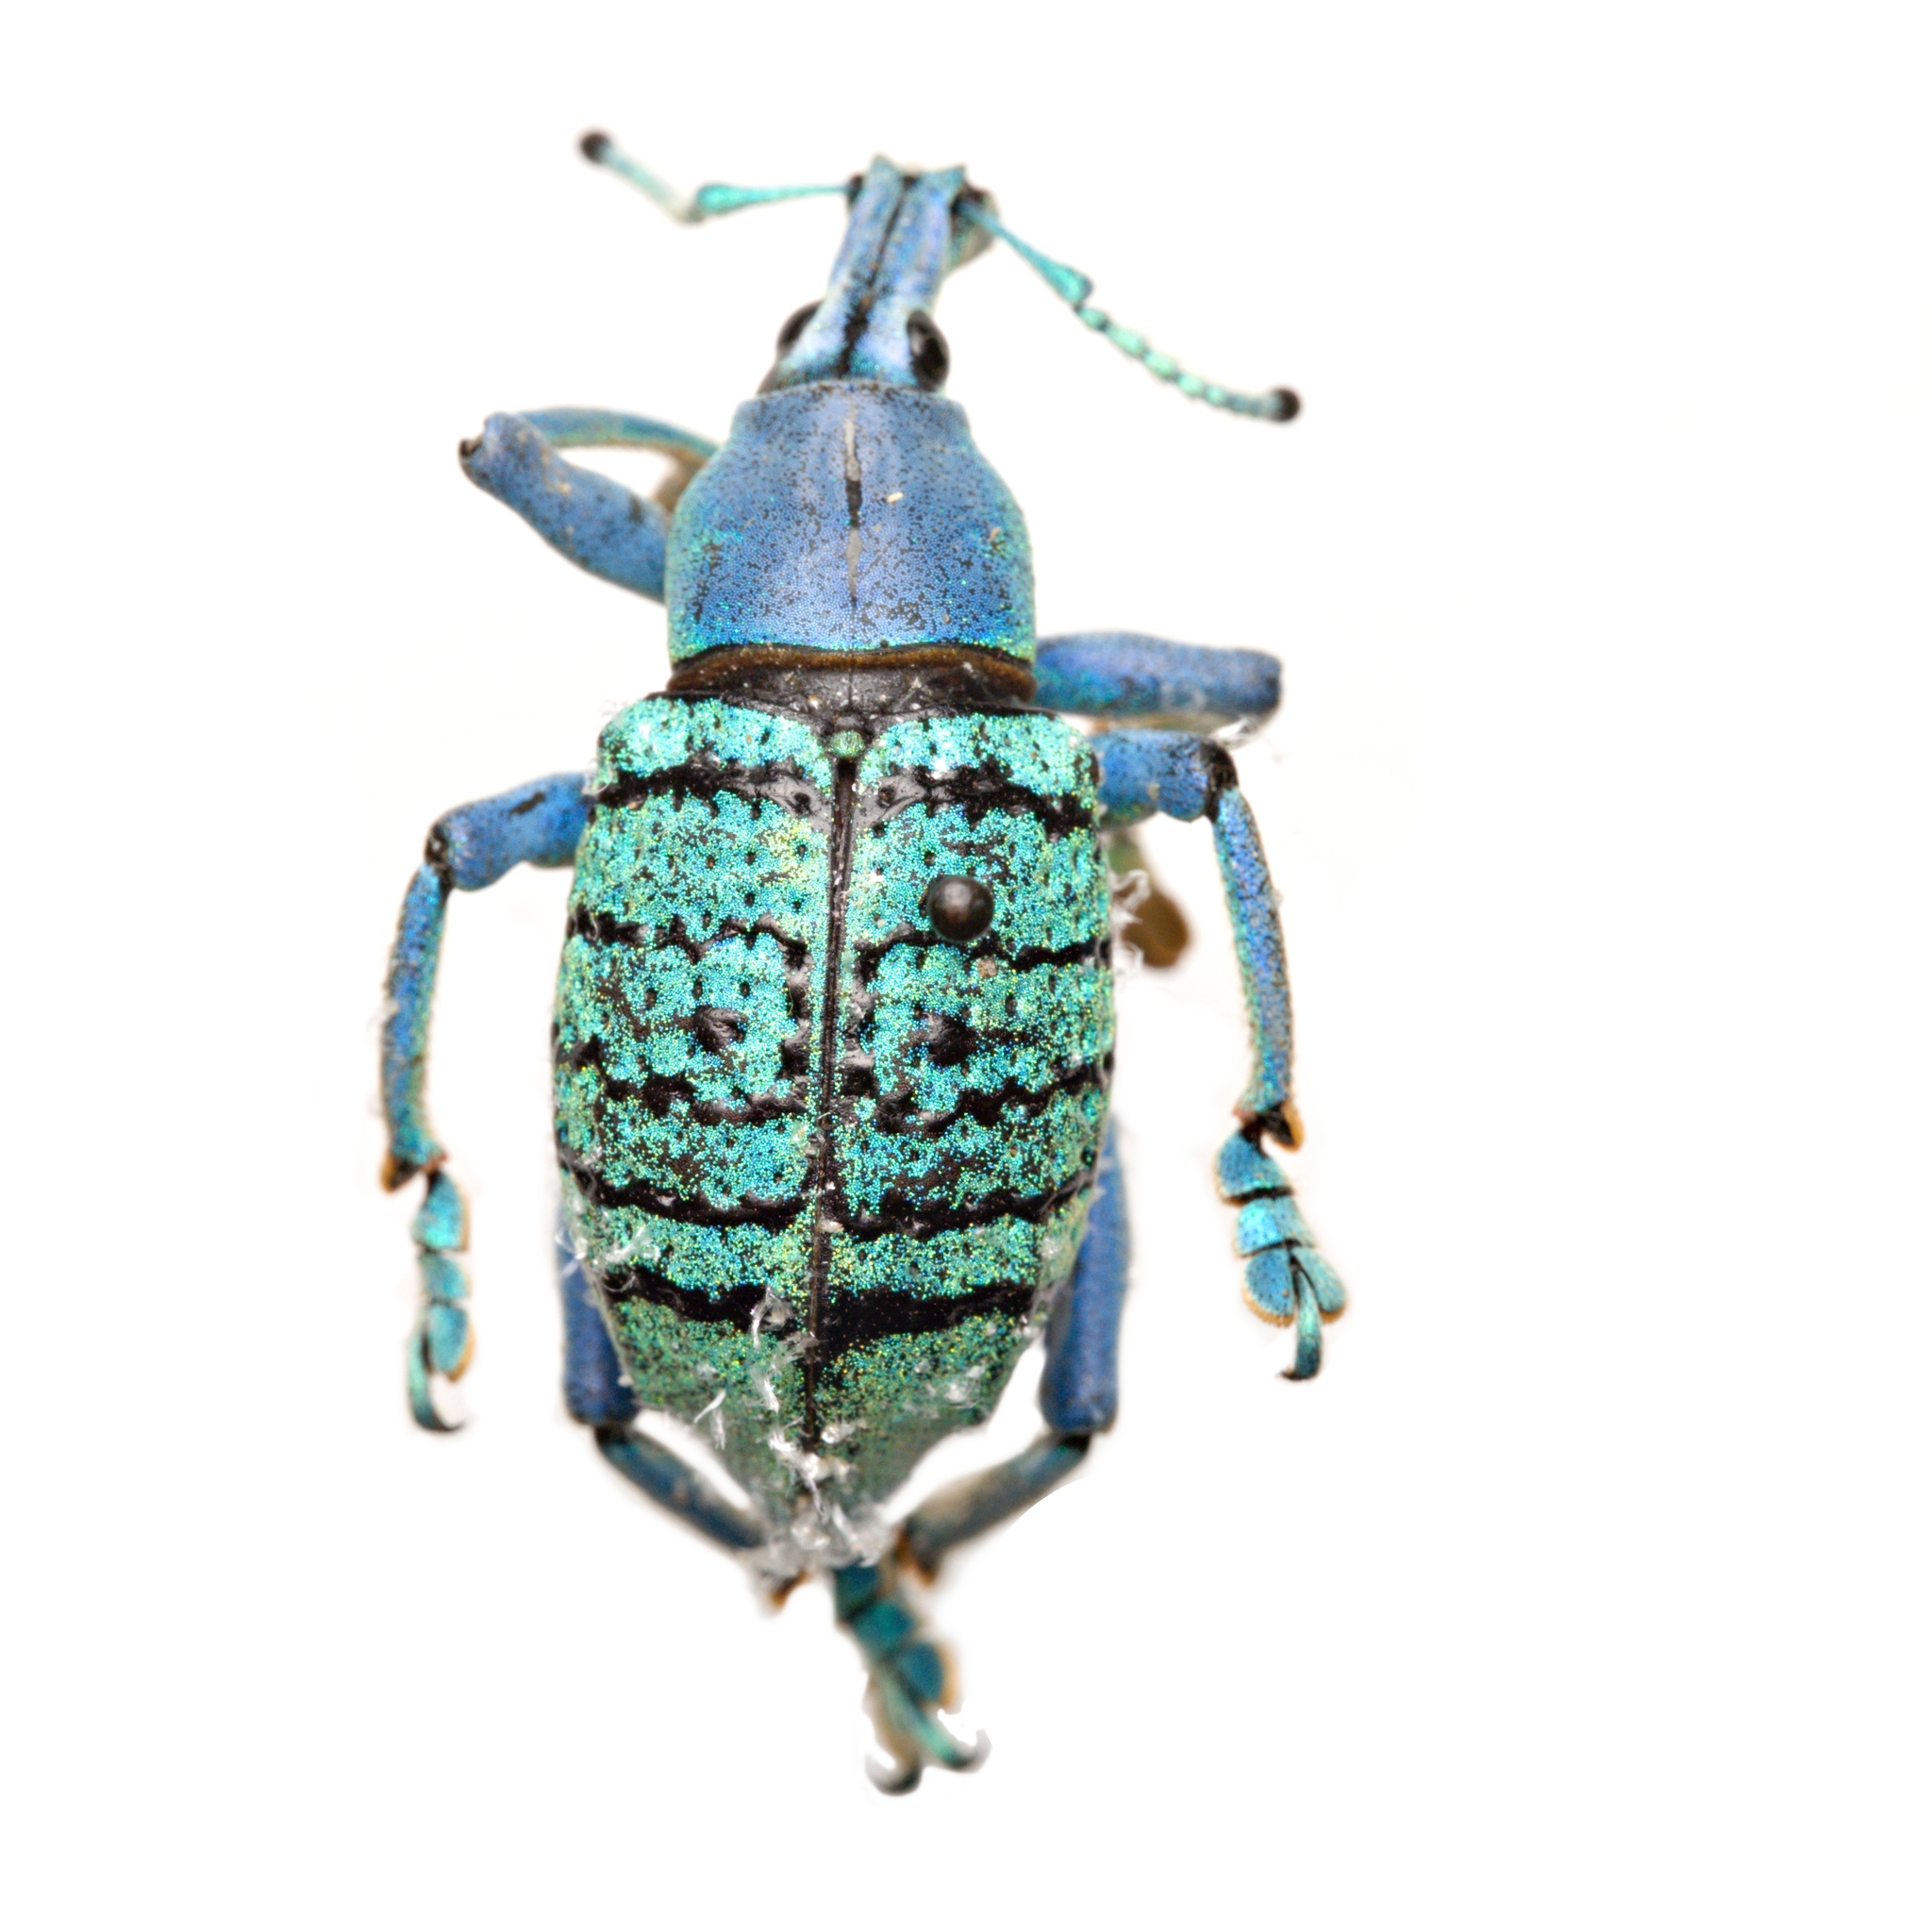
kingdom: Animalia
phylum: Arthropoda
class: Insecta
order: Coleoptera
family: Curculionidae
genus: Eupholus
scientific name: Eupholus geoffroyi
